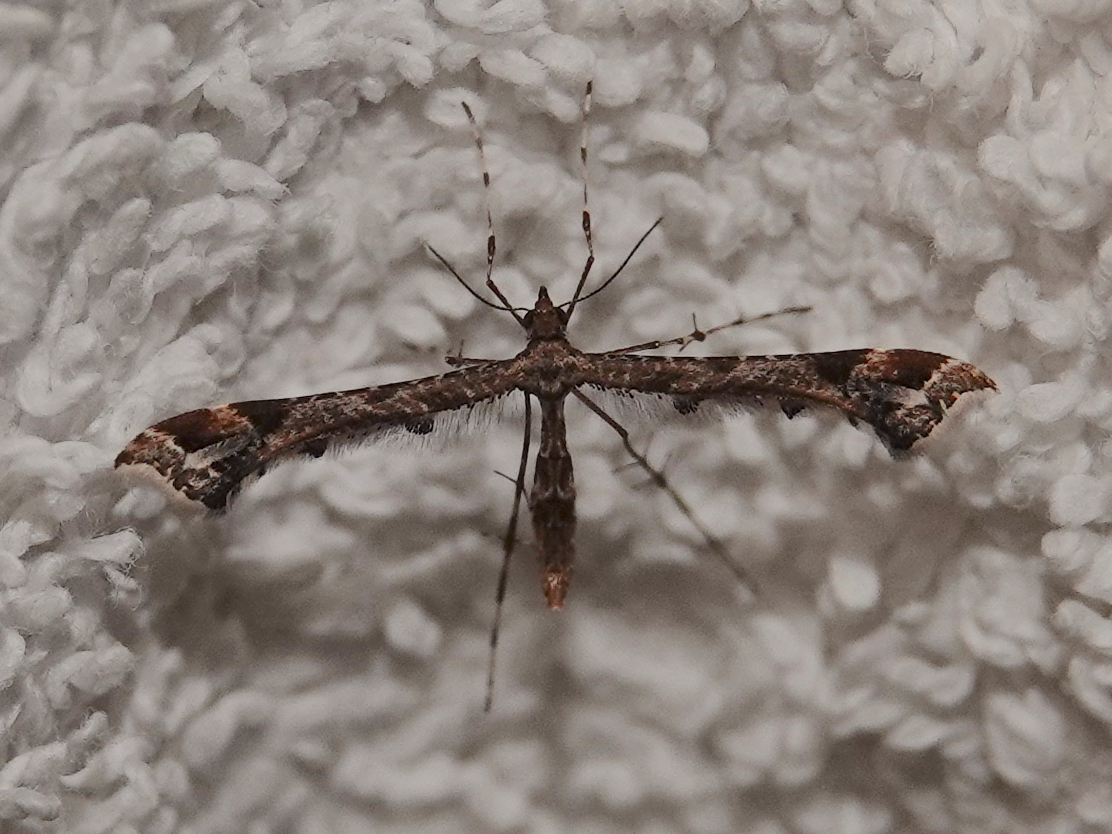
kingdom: Animalia
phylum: Arthropoda
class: Insecta
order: Lepidoptera
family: Pterophoridae
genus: Amblyptilia
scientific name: Amblyptilia acanthadactyla
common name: Beautiful plume
